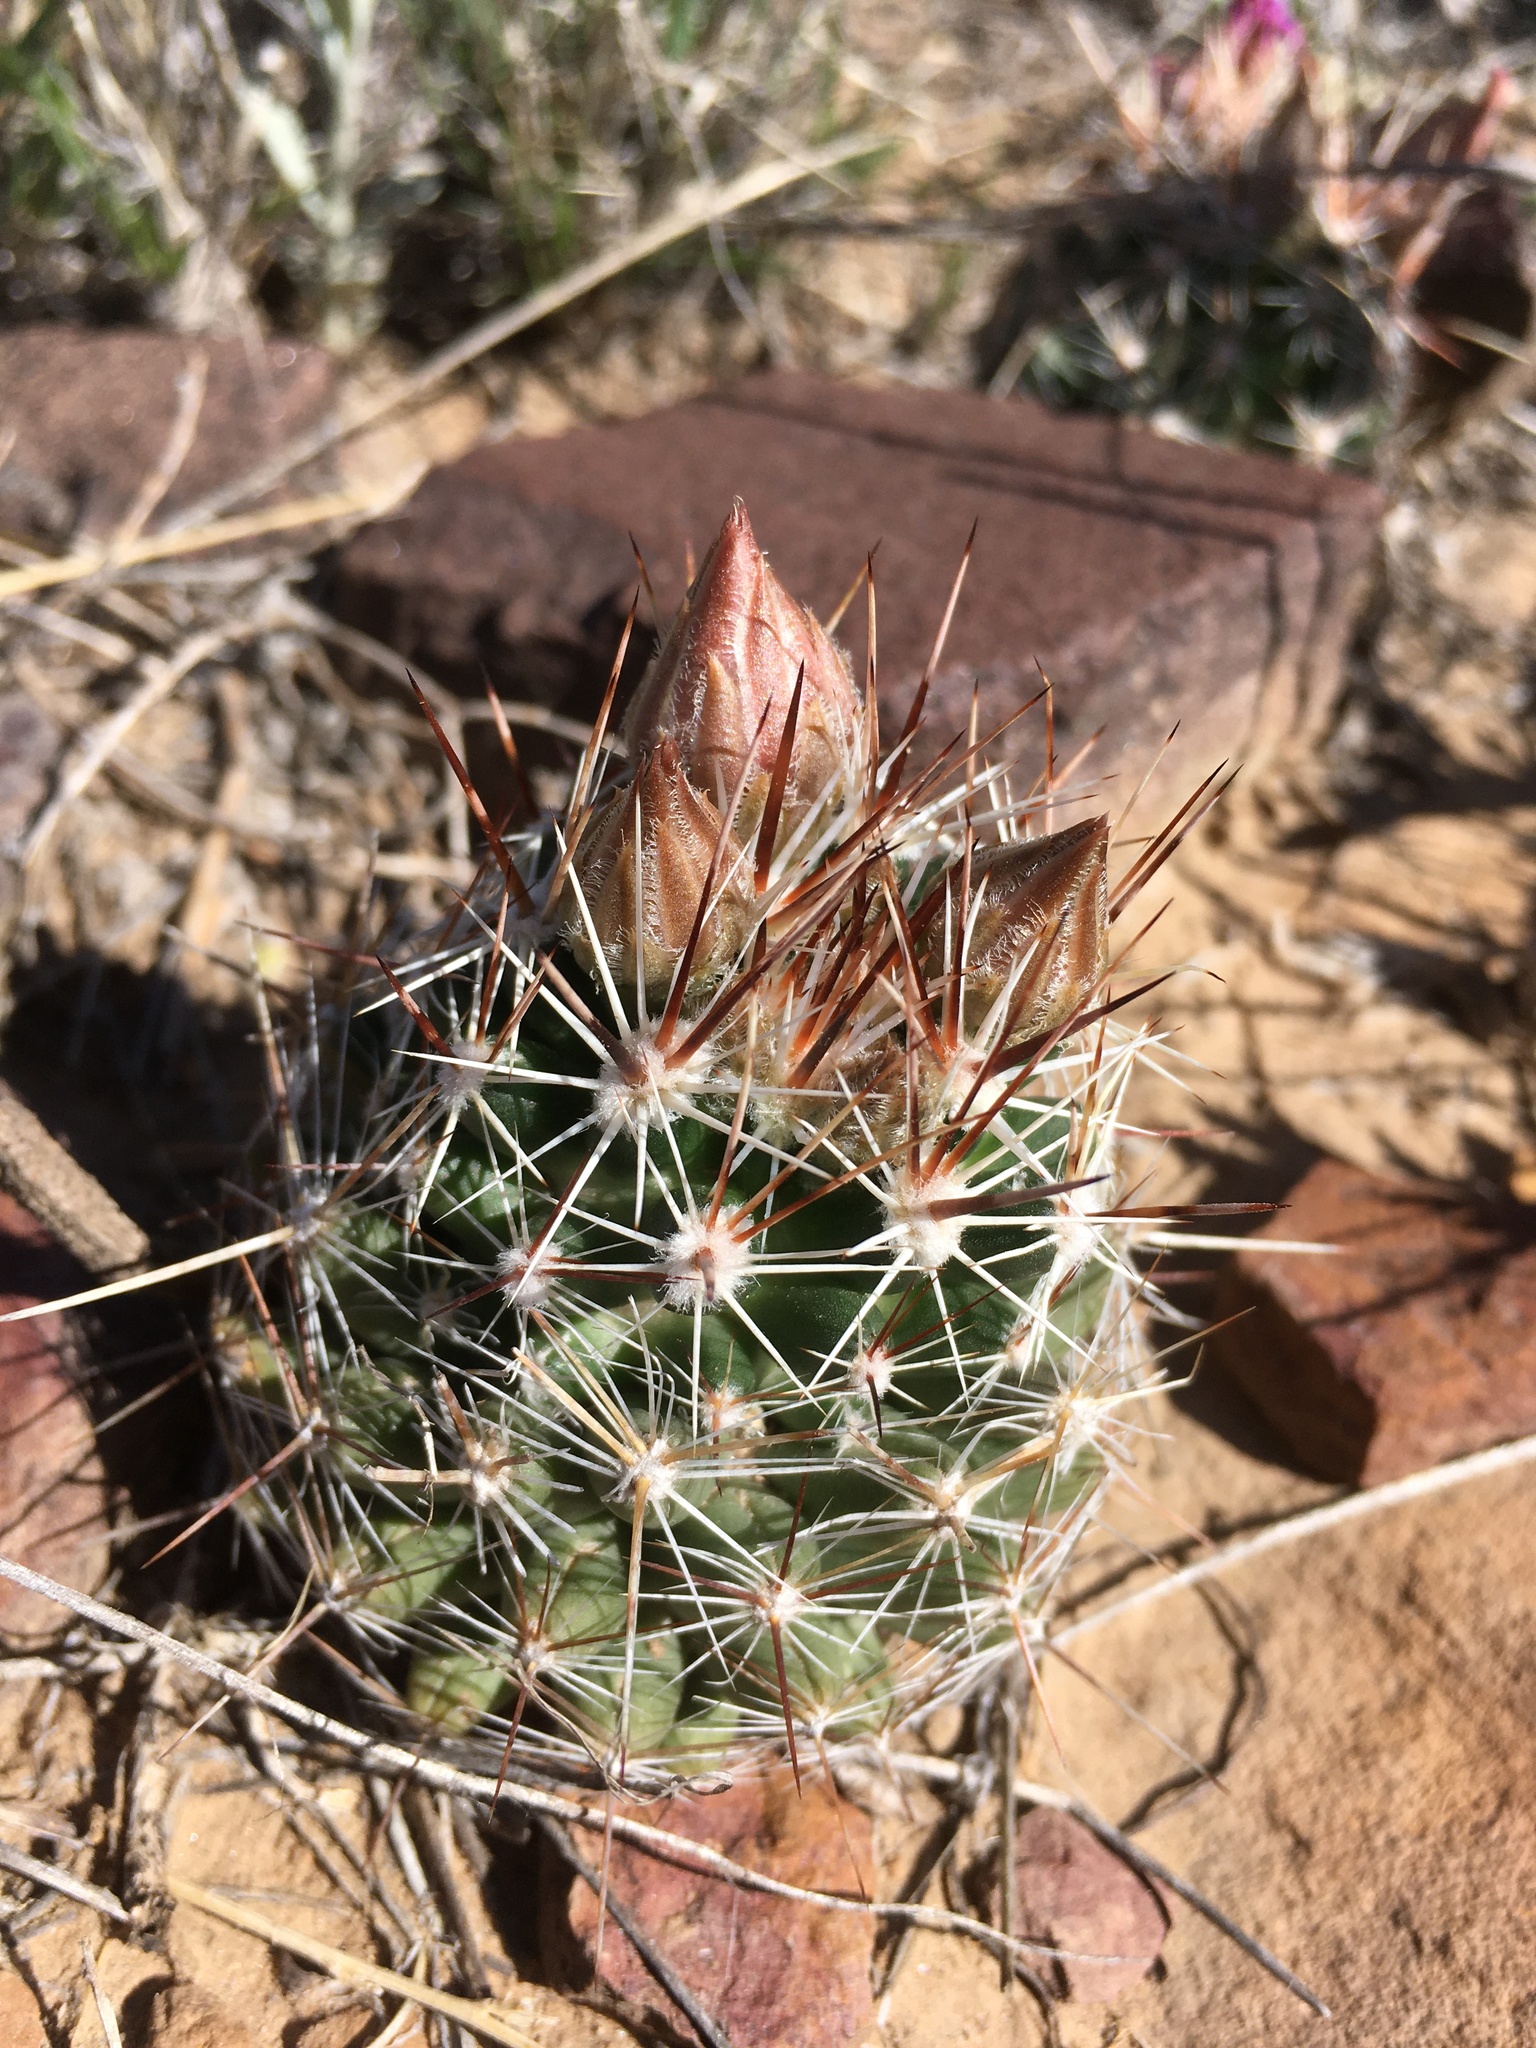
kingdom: Plantae
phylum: Tracheophyta
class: Magnoliopsida
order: Caryophyllales
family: Cactaceae
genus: Pelecyphora
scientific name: Pelecyphora vivipara
